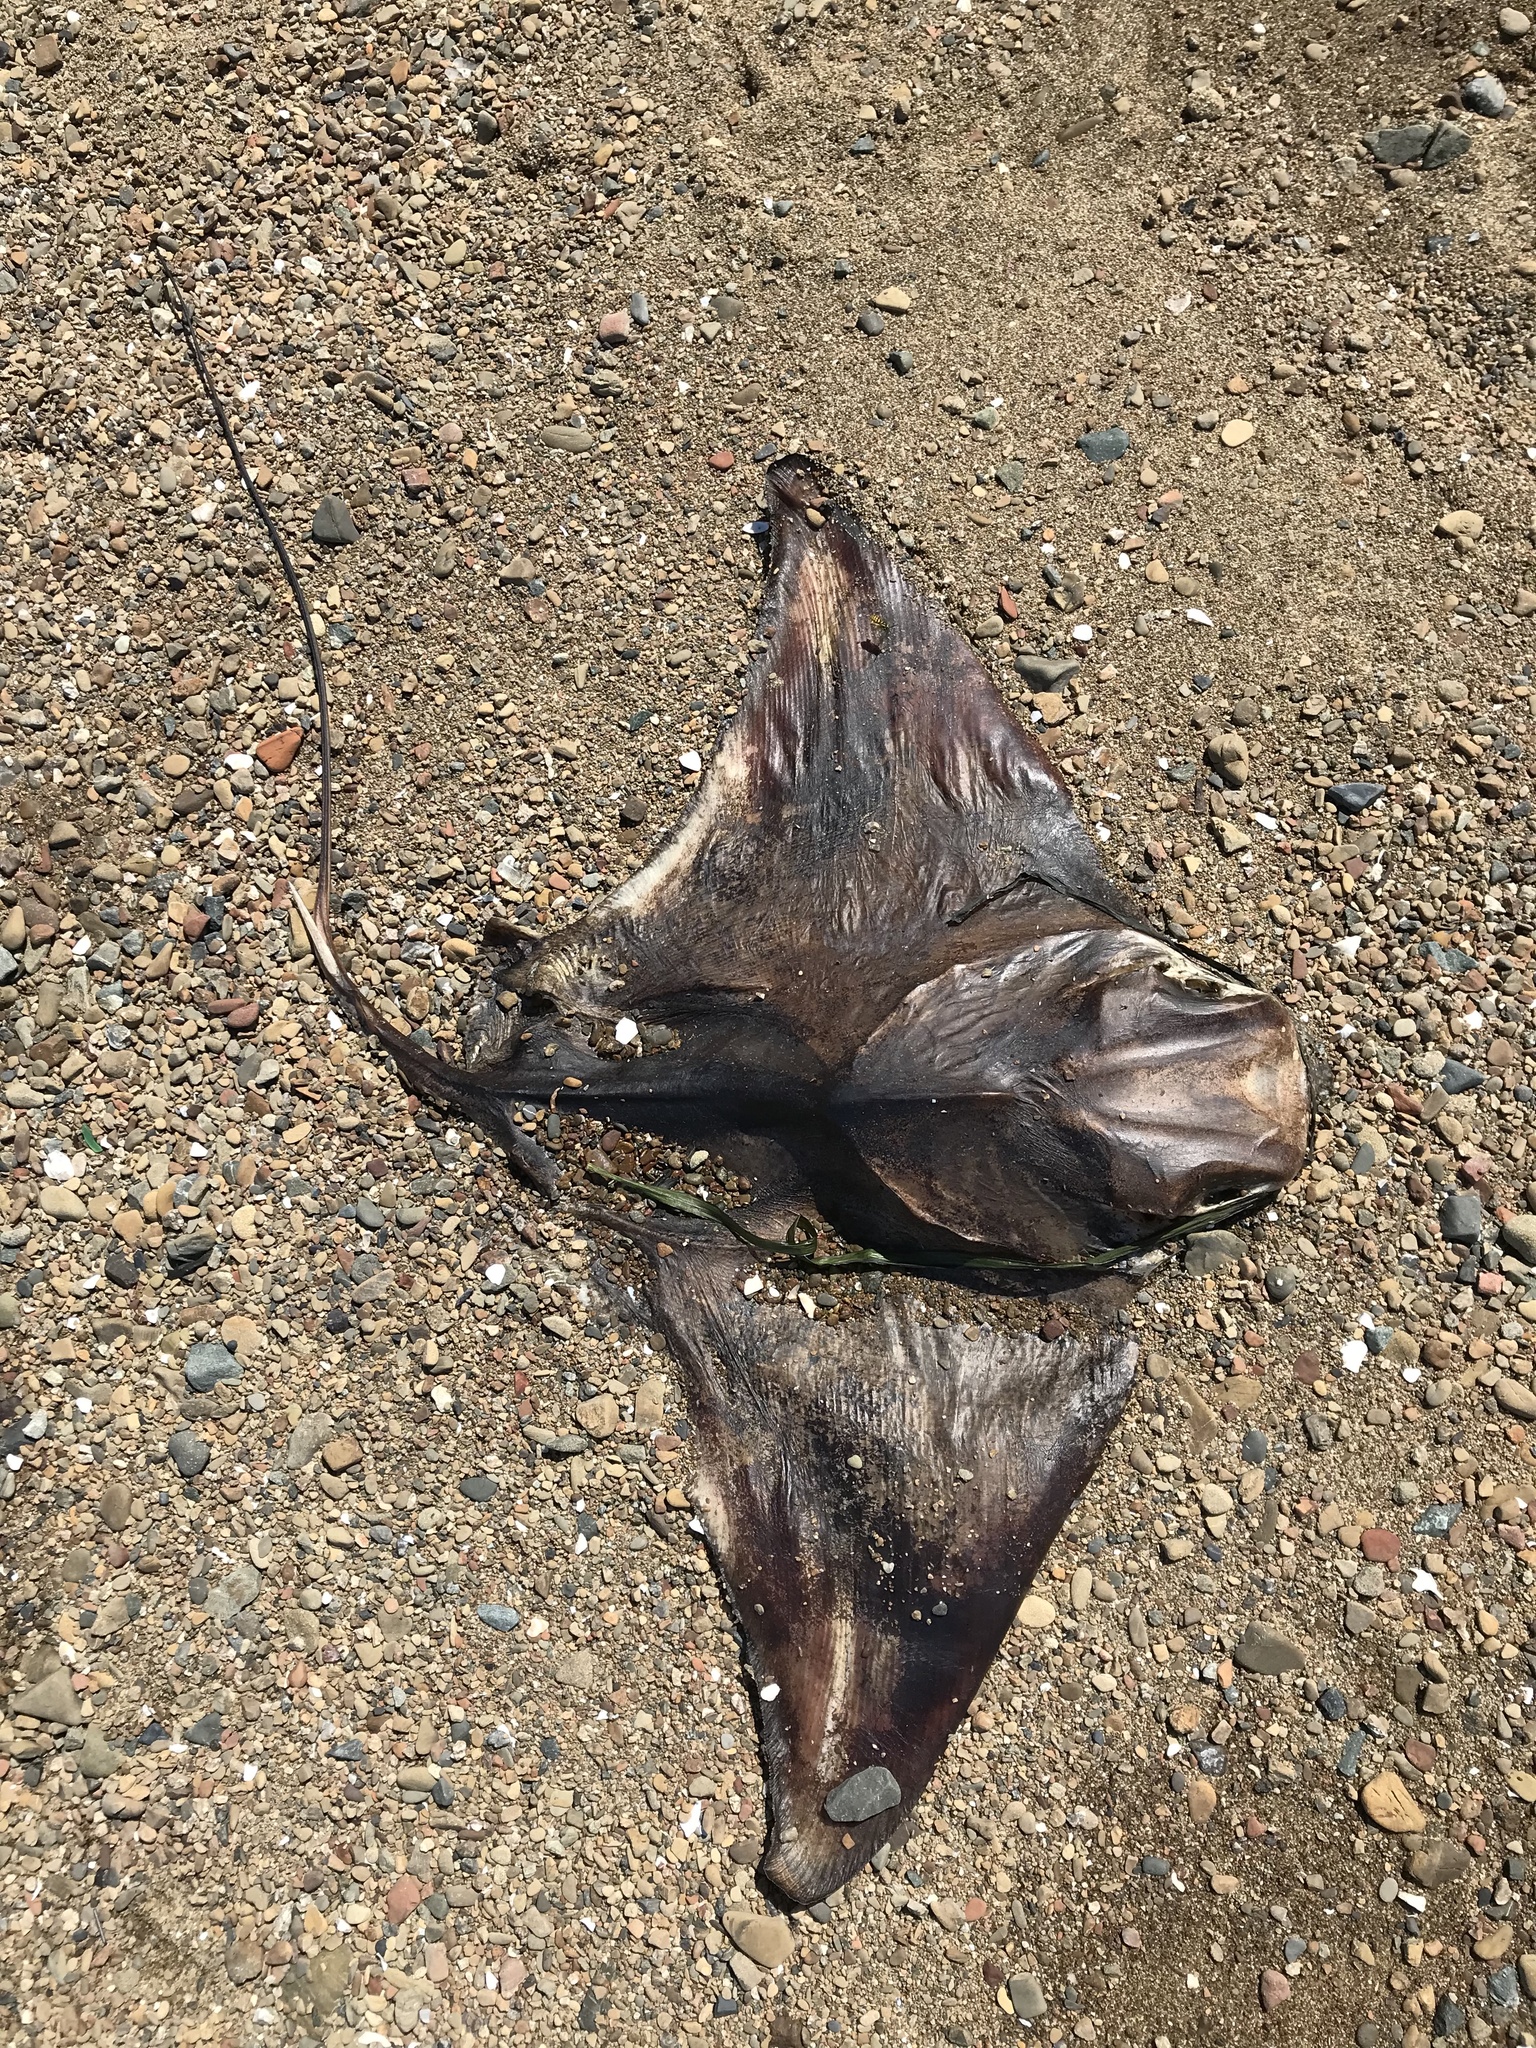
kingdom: Animalia
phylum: Chordata
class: Elasmobranchii
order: Myliobatiformes
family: Myliobatidae
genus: Myliobatis
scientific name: Myliobatis californica
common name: Bat ray
